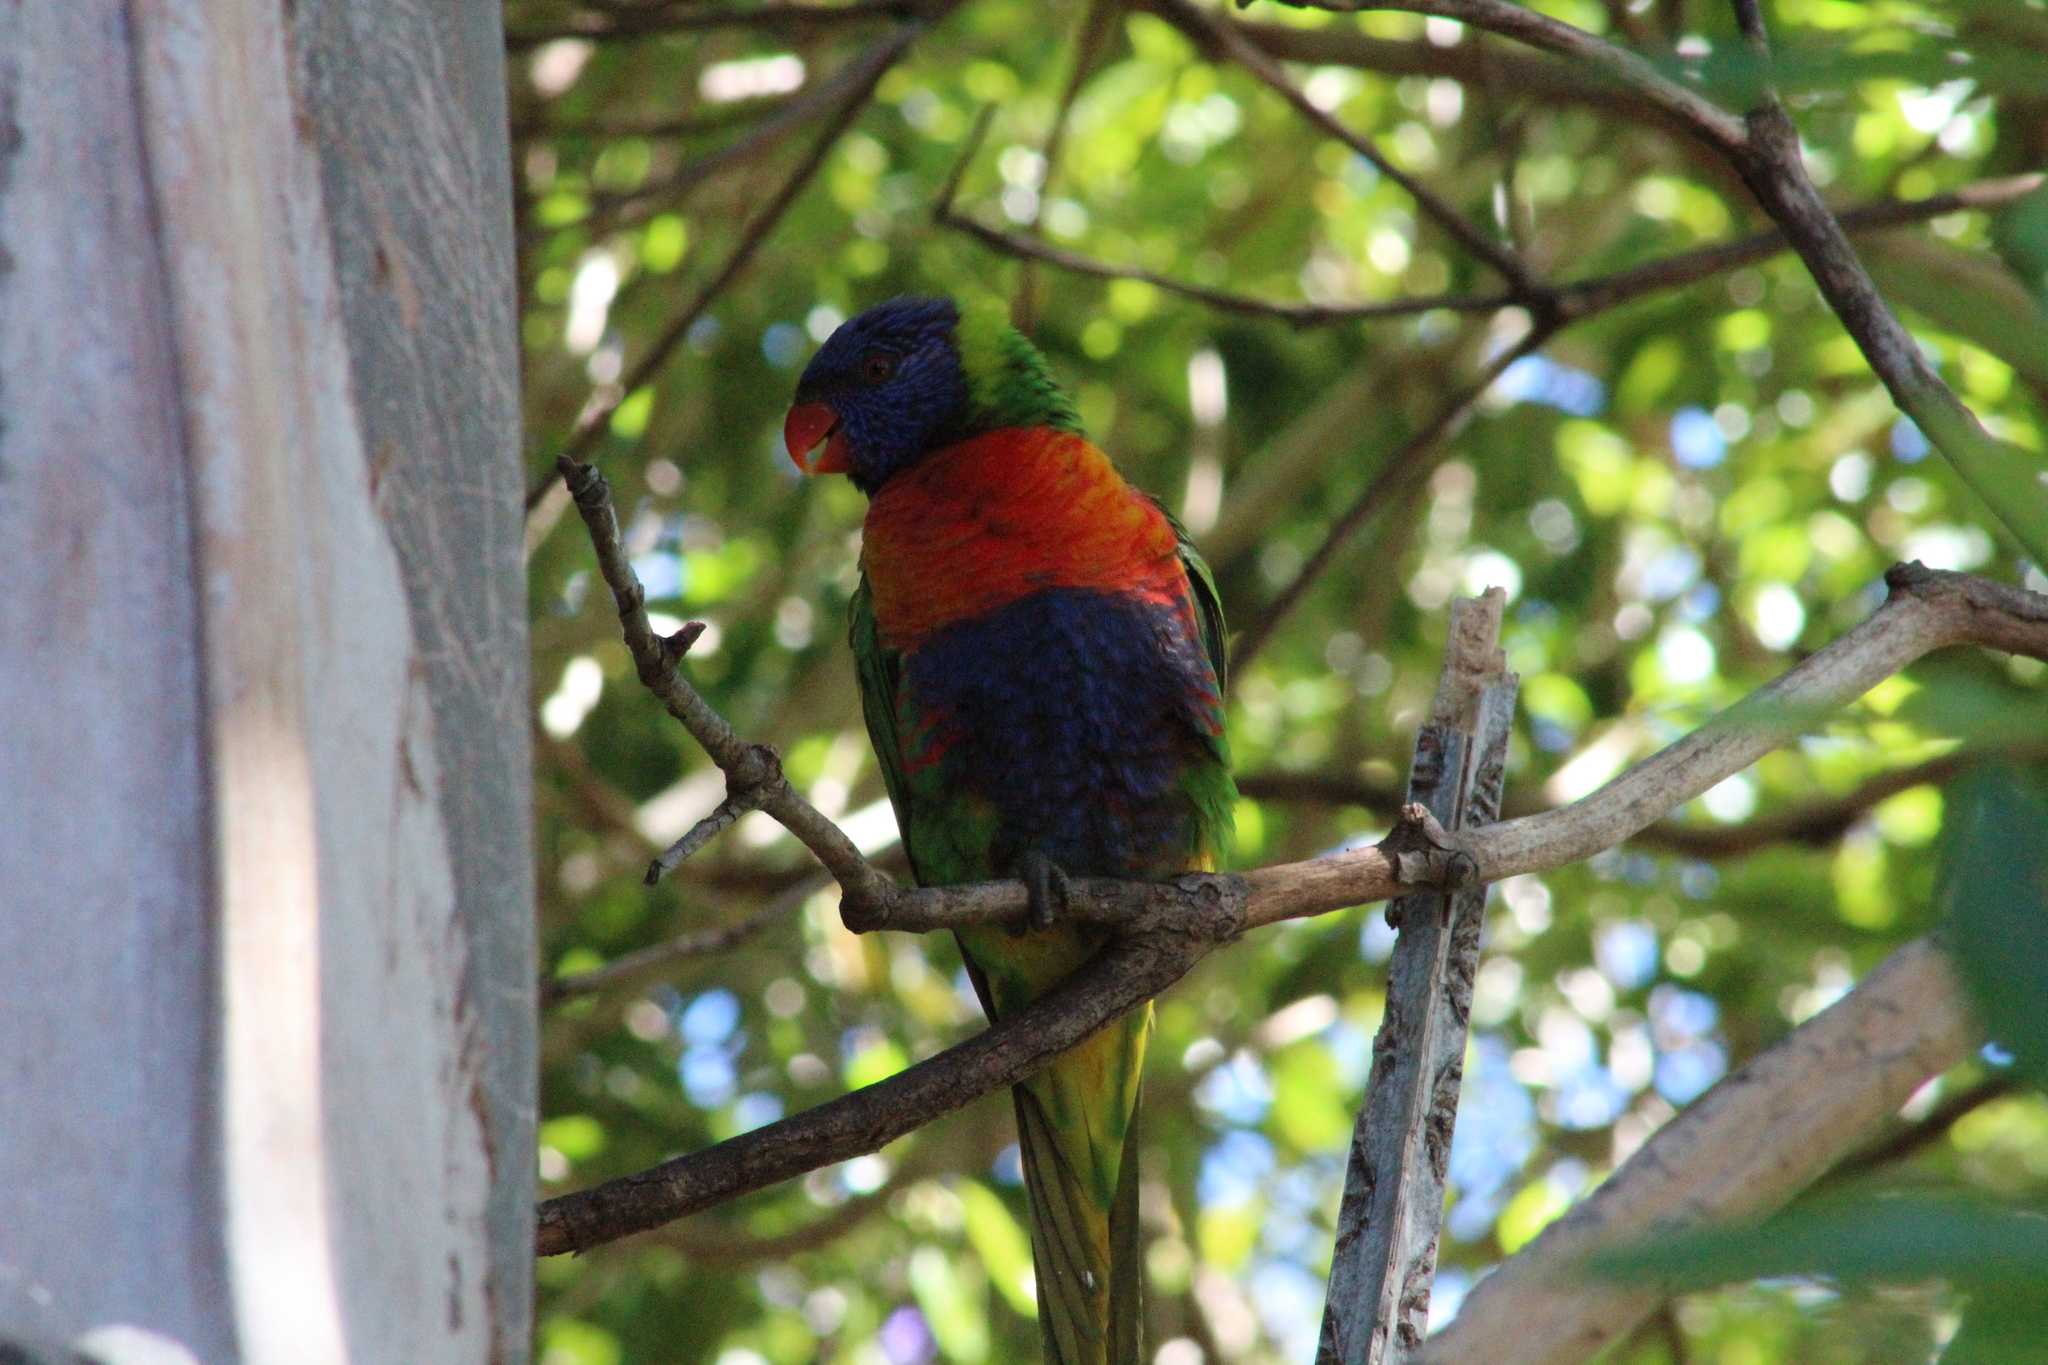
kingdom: Animalia
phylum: Chordata
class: Aves
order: Psittaciformes
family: Psittacidae
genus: Trichoglossus
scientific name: Trichoglossus haematodus
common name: Coconut lorikeet
